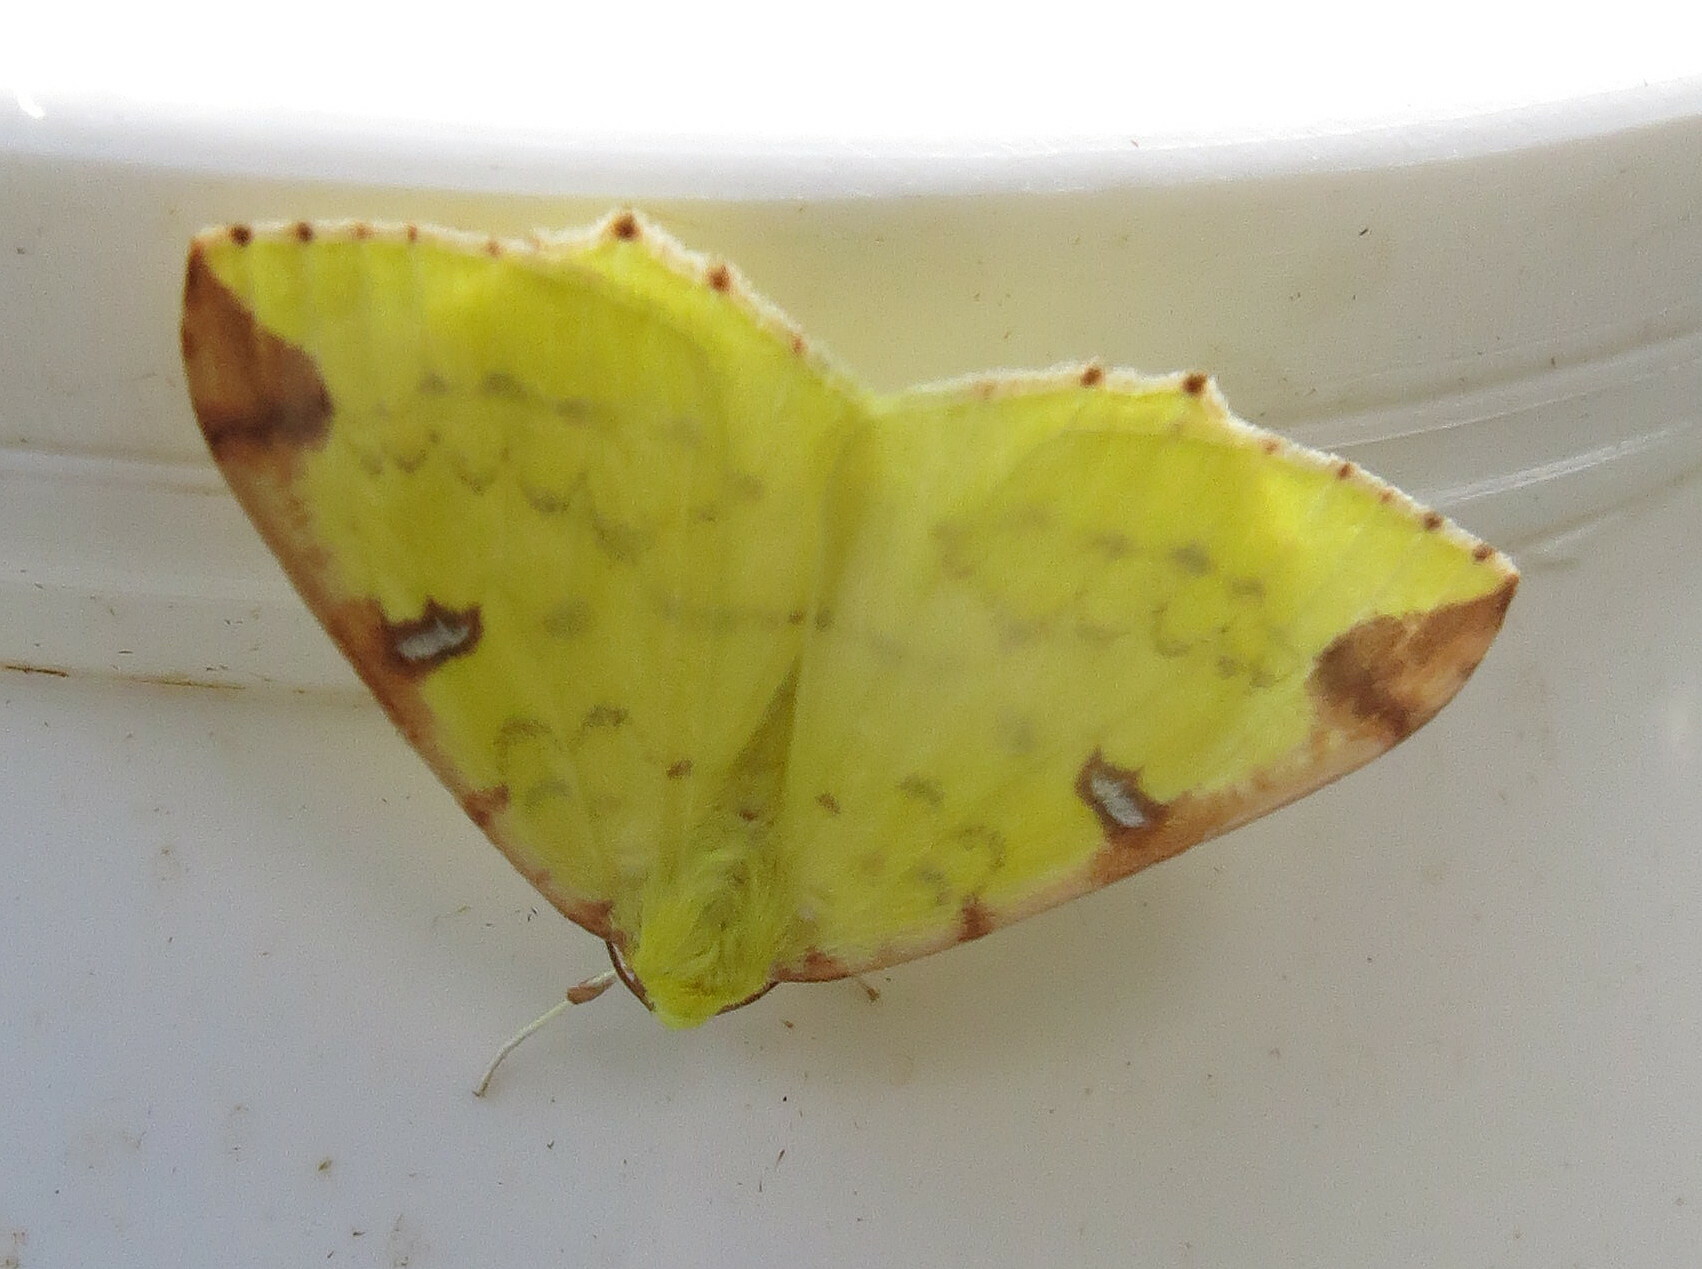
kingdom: Animalia
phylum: Arthropoda
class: Insecta
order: Lepidoptera
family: Geometridae
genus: Opisthograptis
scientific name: Opisthograptis luteolata
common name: Brimstone moth
